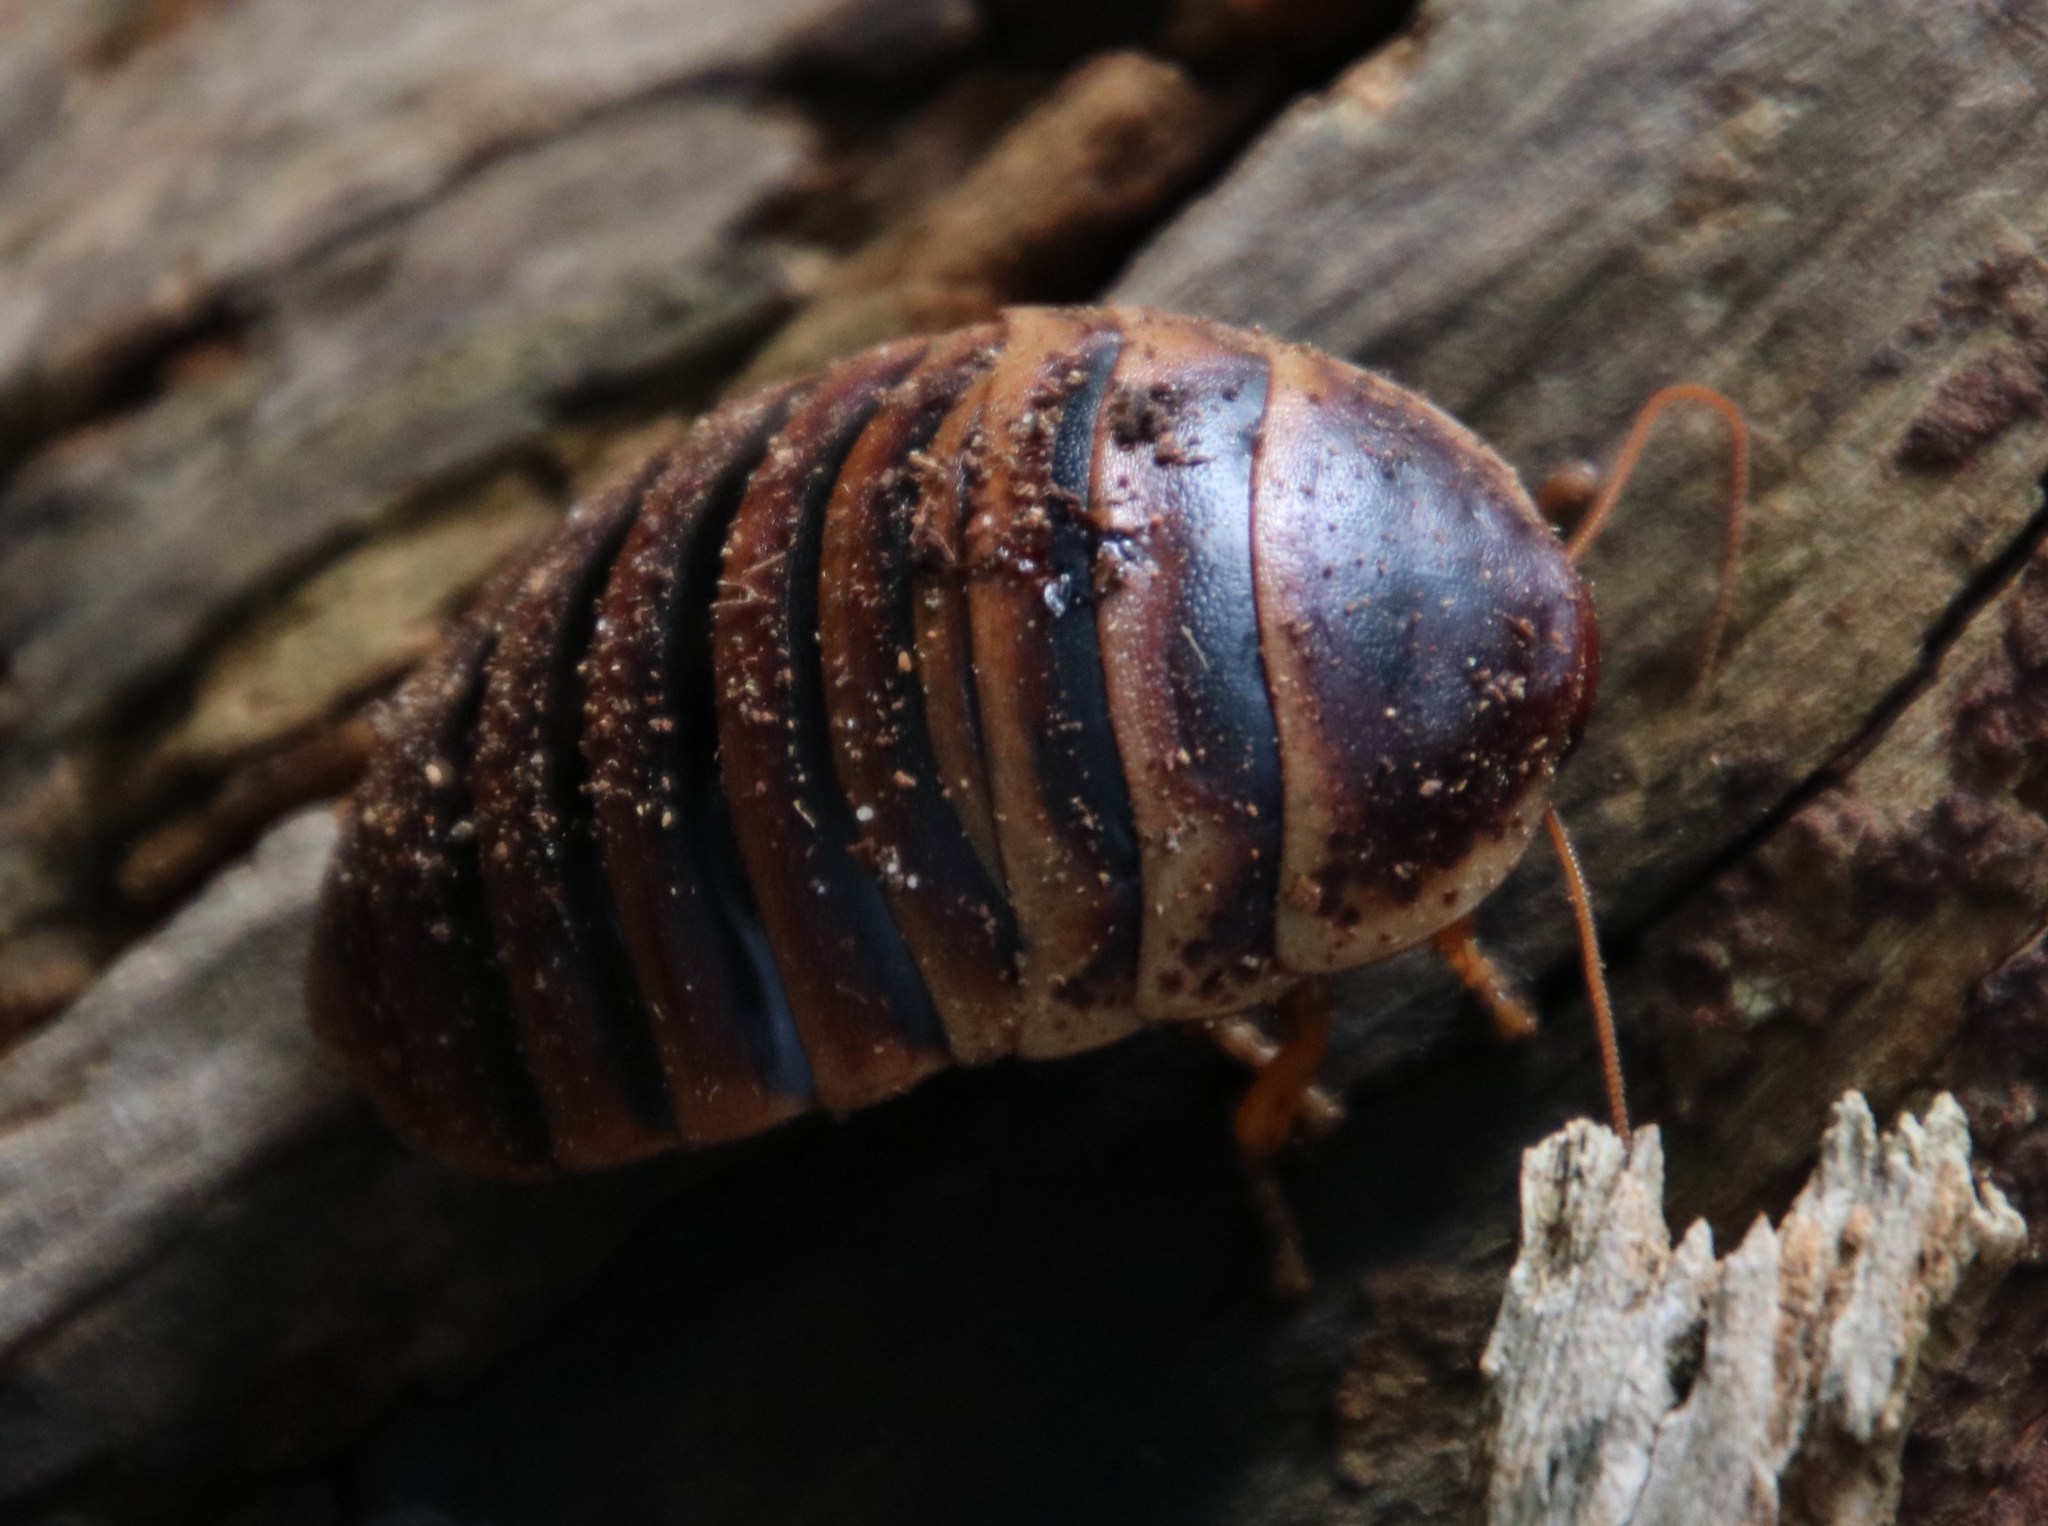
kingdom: Animalia
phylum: Arthropoda
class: Insecta
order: Blattodea
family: Blaberidae
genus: Aptera
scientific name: Aptera fusca
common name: Cape mountain cockroach
